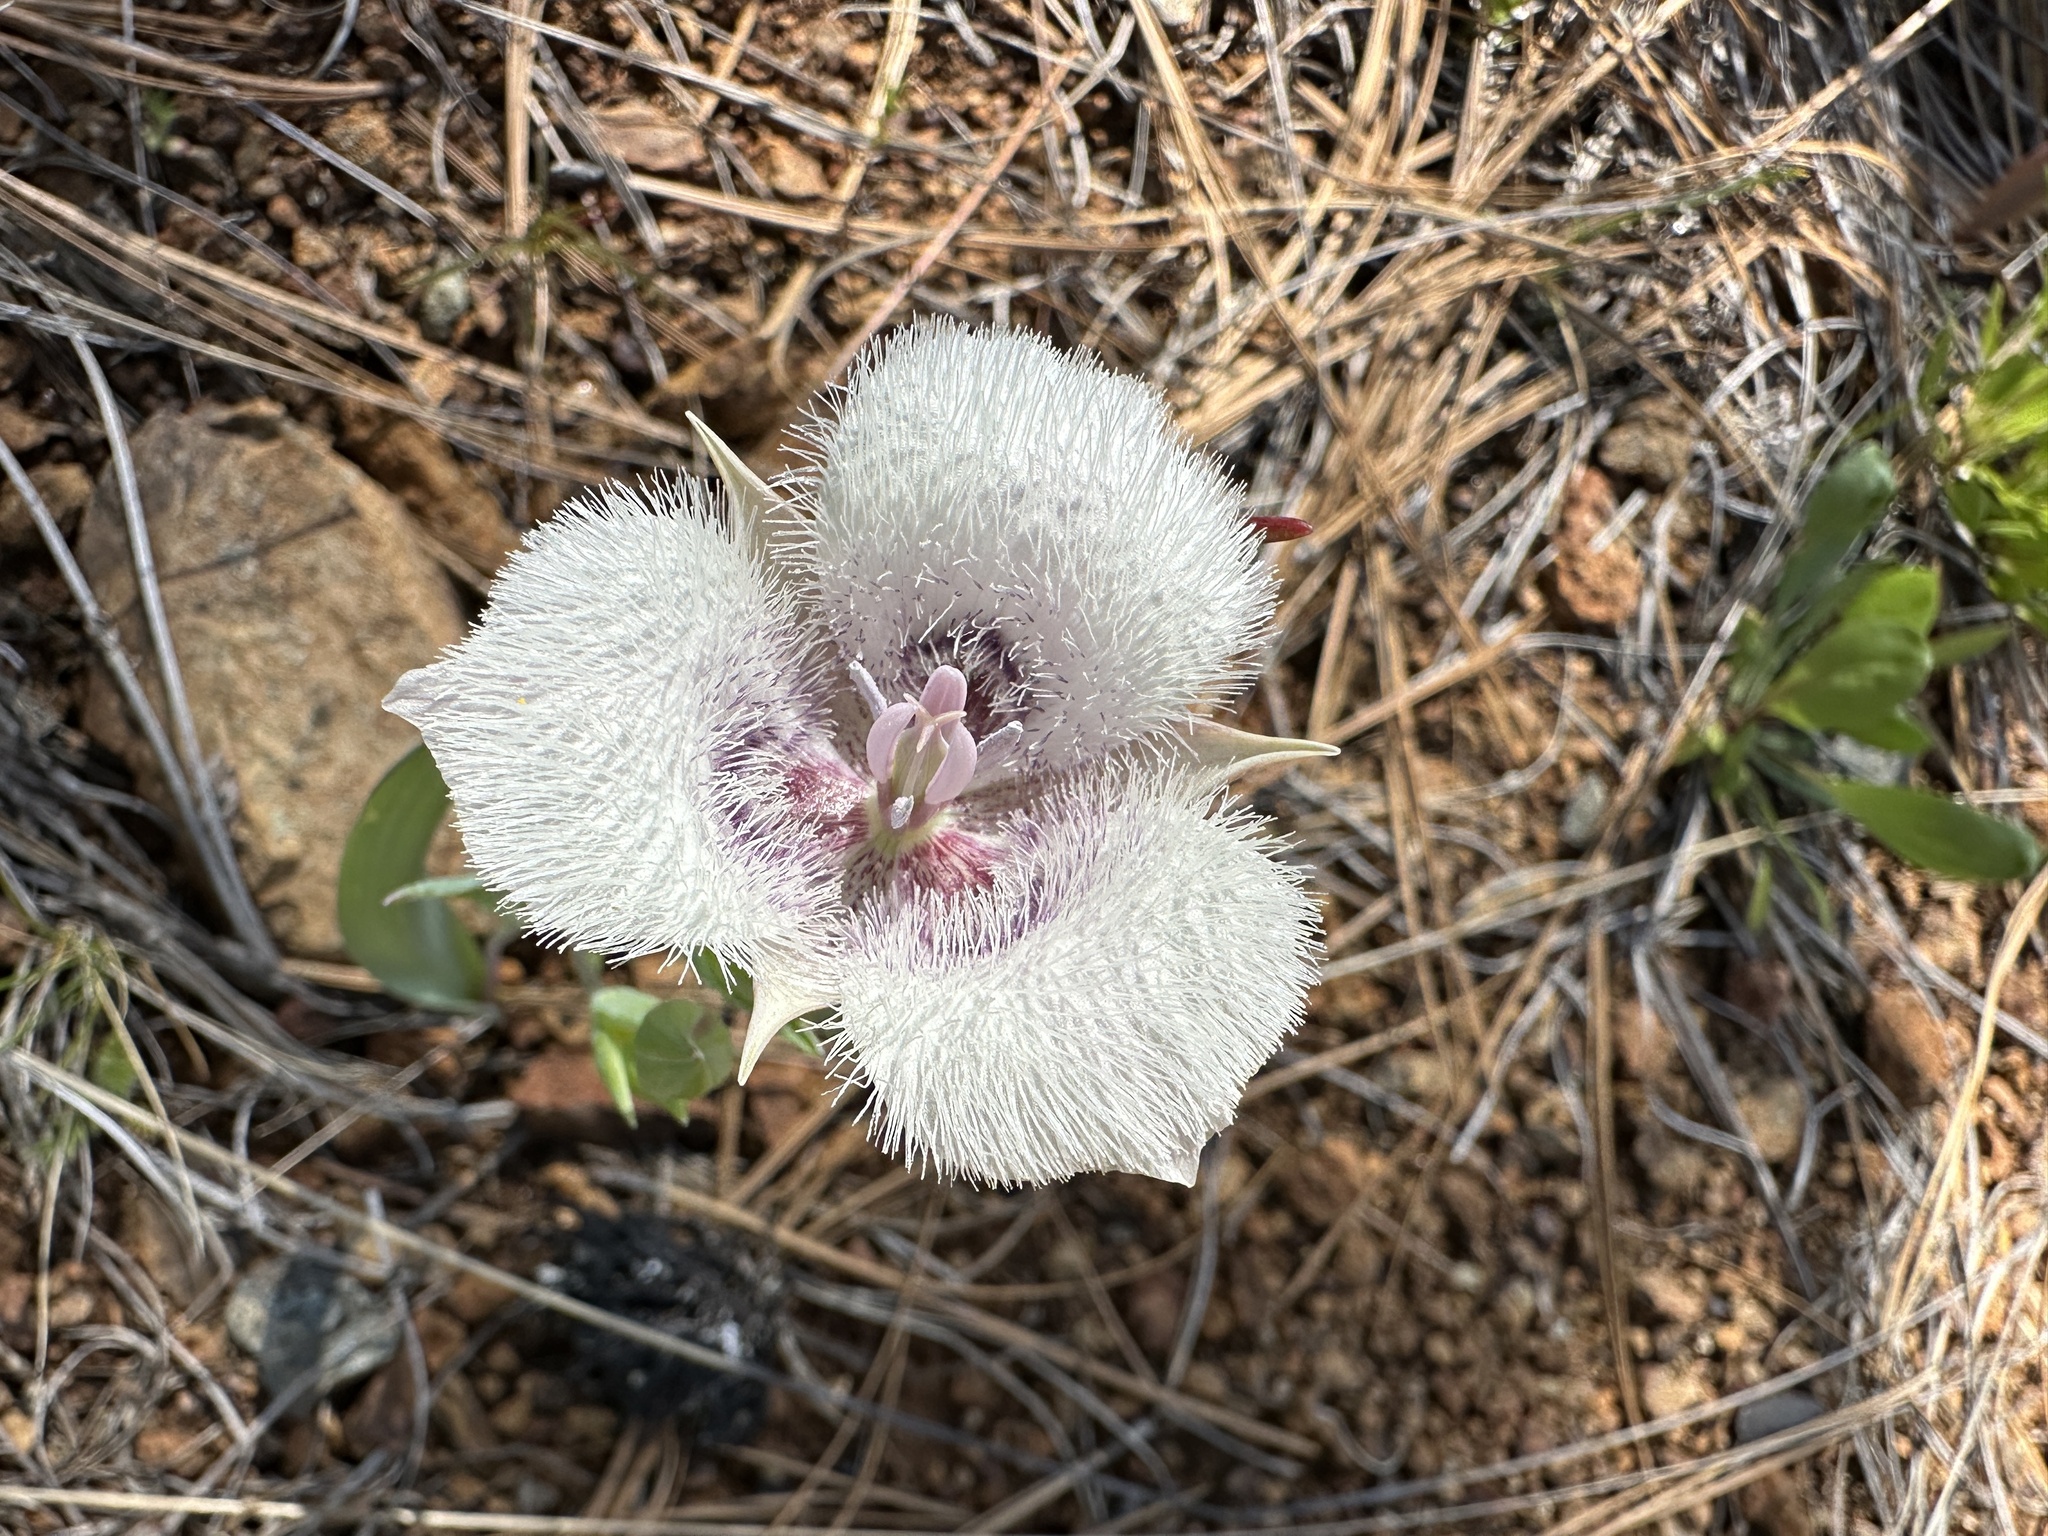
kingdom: Plantae
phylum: Tracheophyta
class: Liliopsida
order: Liliales
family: Liliaceae
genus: Calochortus
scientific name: Calochortus tolmiei
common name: Pussy-ears
